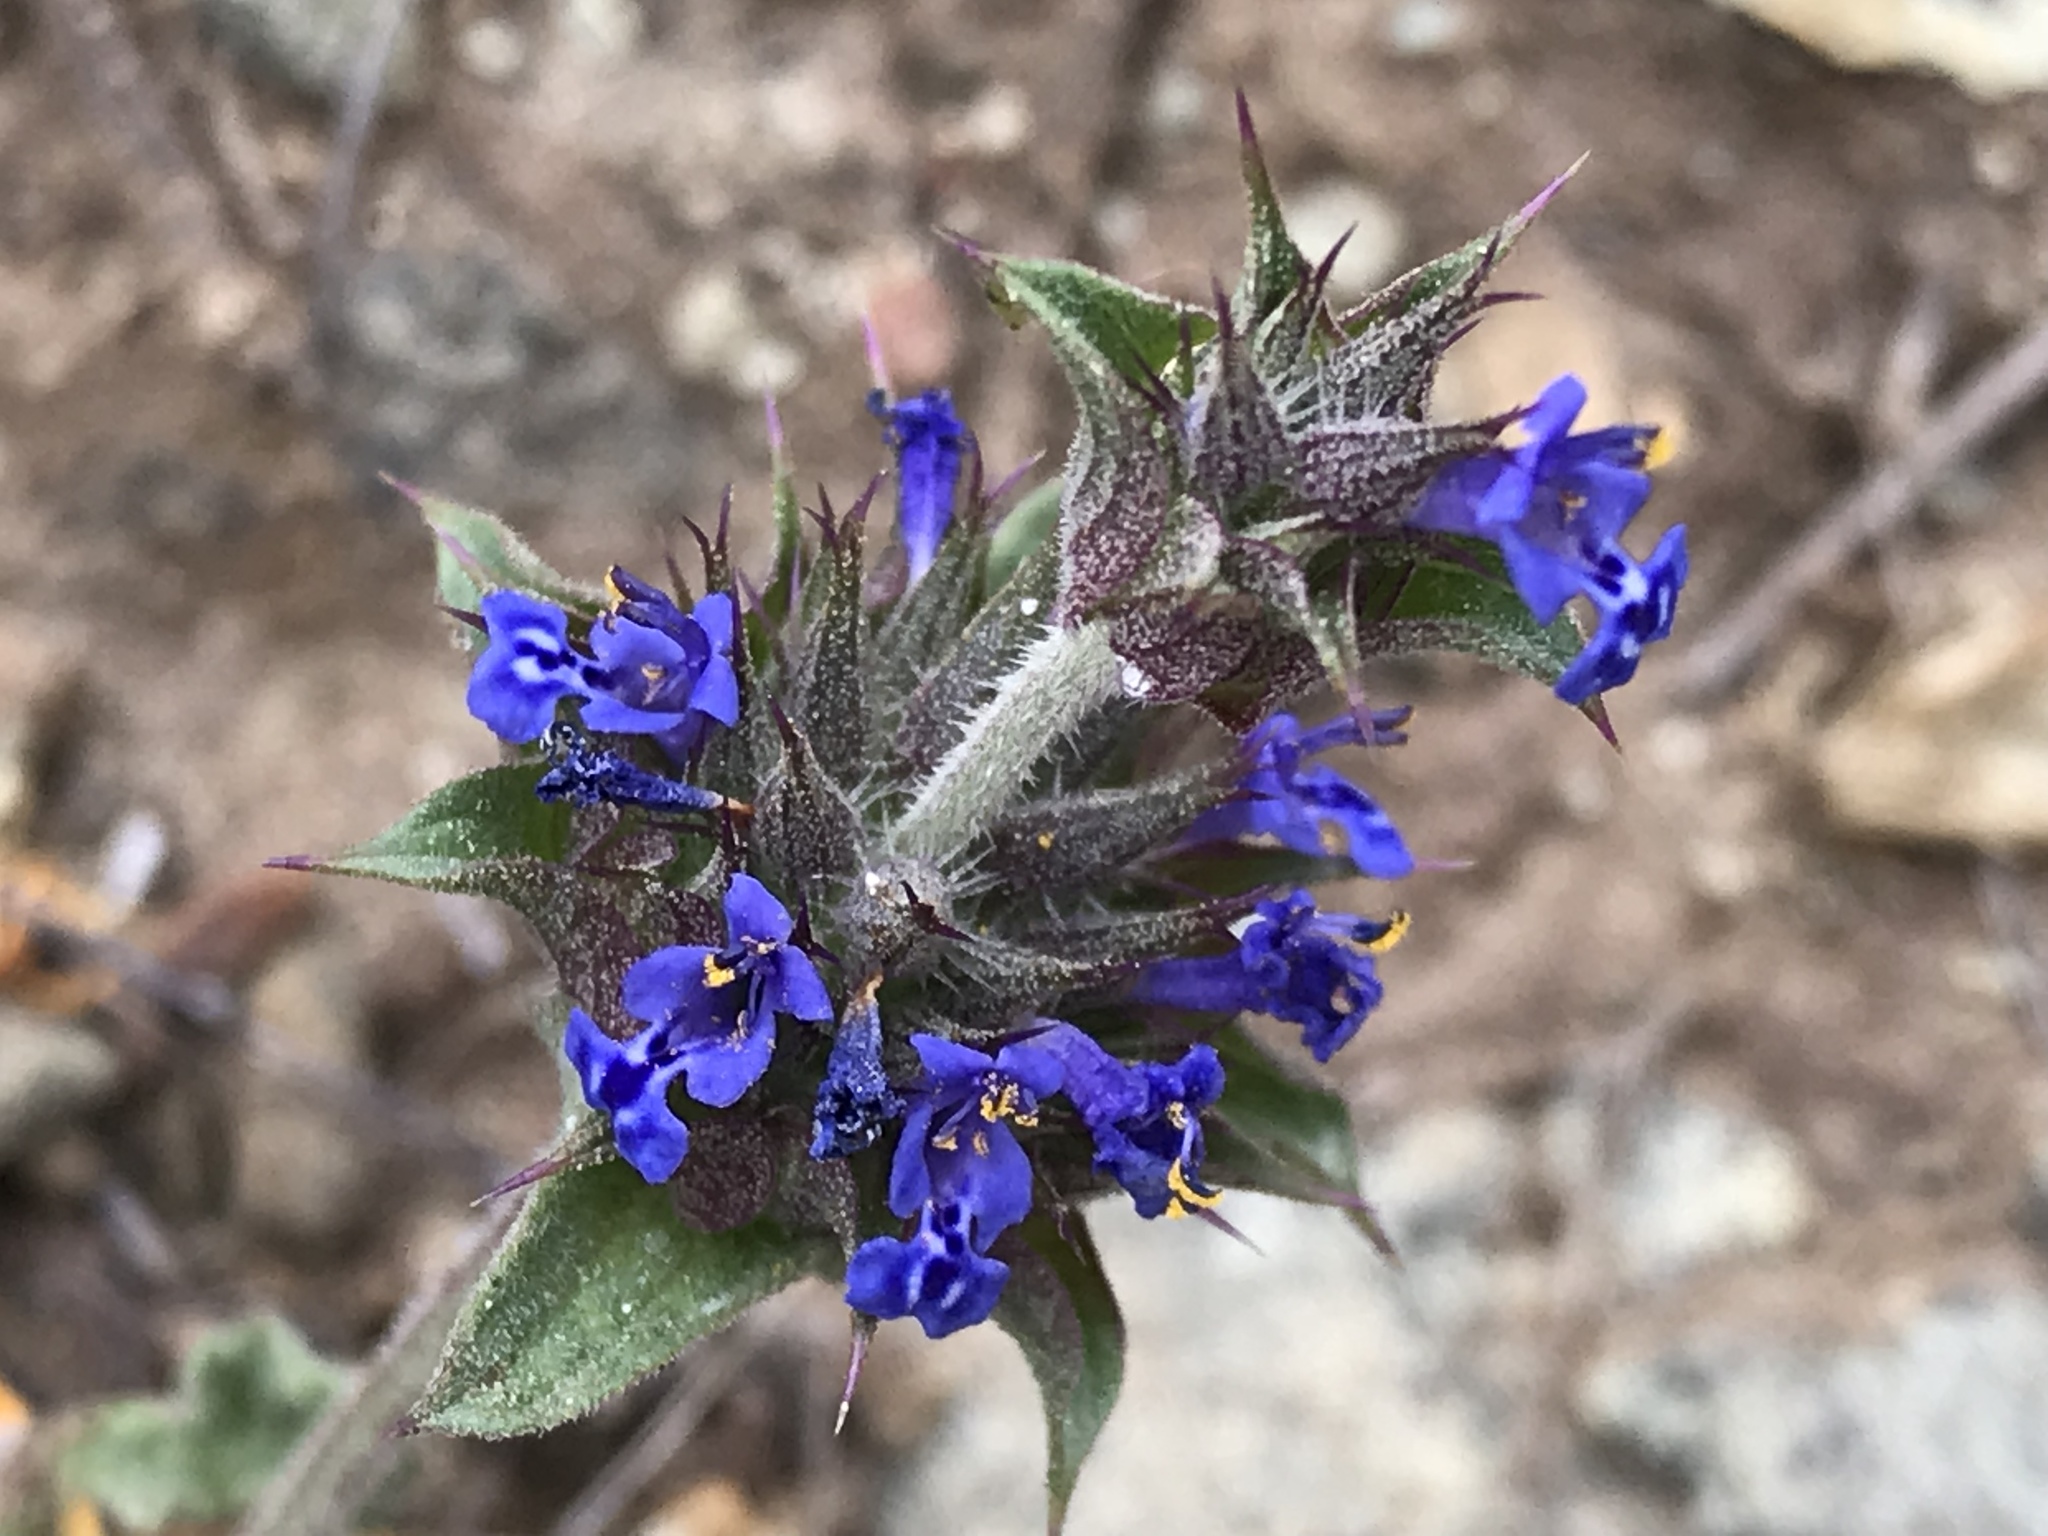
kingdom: Plantae
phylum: Tracheophyta
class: Magnoliopsida
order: Lamiales
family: Lamiaceae
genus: Salvia
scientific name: Salvia columbariae
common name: Chia
